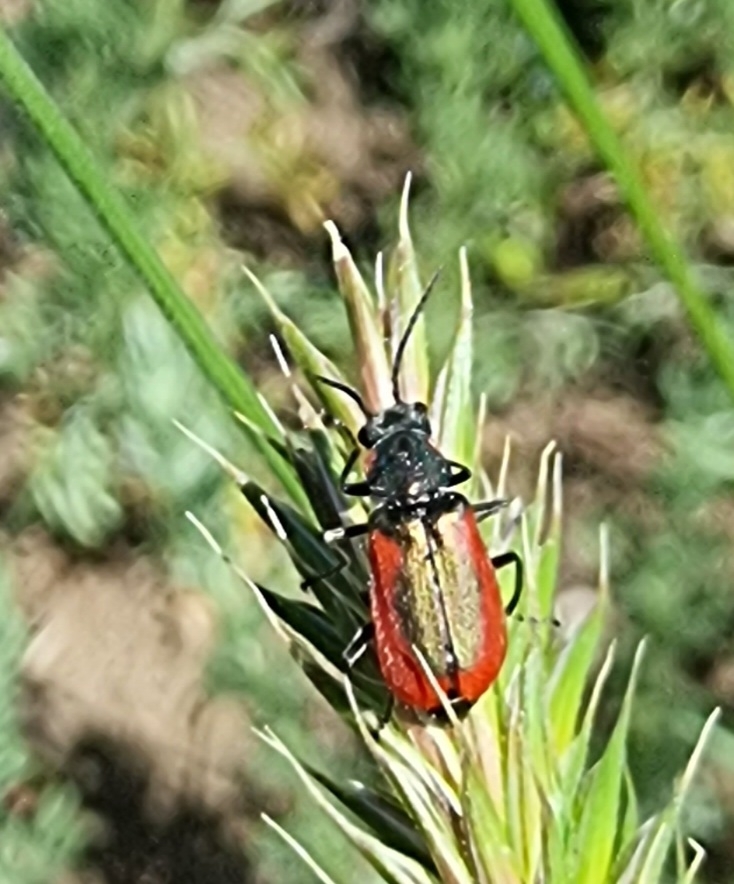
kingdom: Animalia
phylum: Arthropoda
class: Insecta
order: Coleoptera
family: Melyridae
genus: Malachius
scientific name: Malachius aeneus
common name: Scarlet malachite beetle
